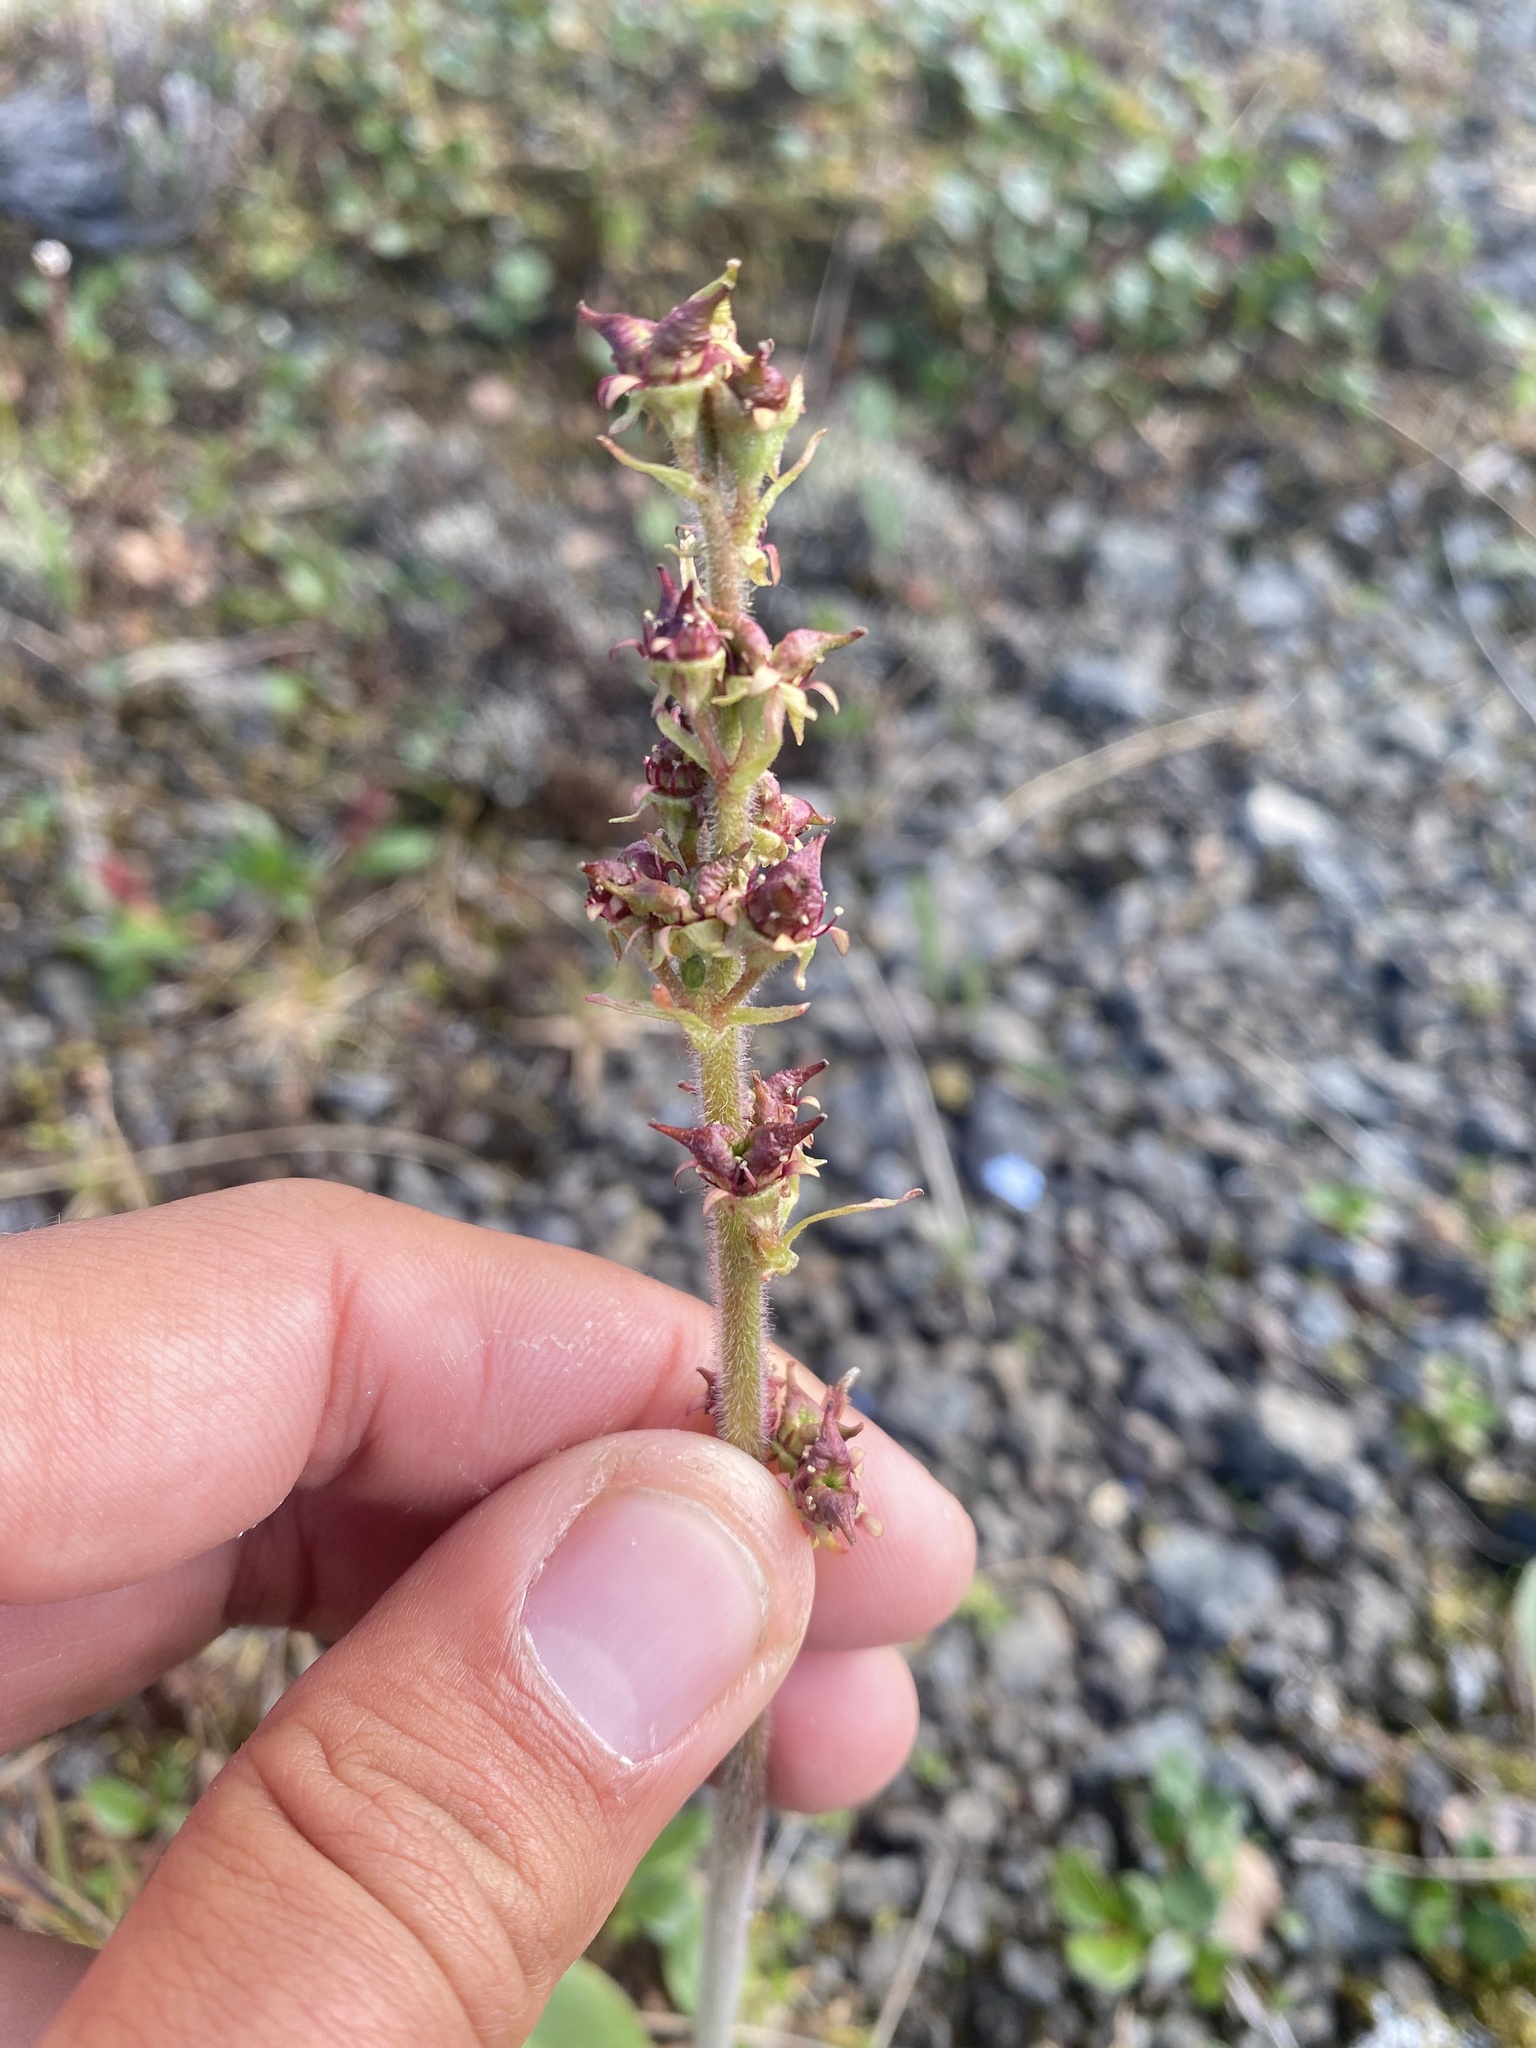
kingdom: Plantae
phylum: Tracheophyta
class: Magnoliopsida
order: Saxifragales
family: Saxifragaceae
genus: Micranthes
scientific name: Micranthes hieraciifolia
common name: Hawkweed-leaved saxifrage
